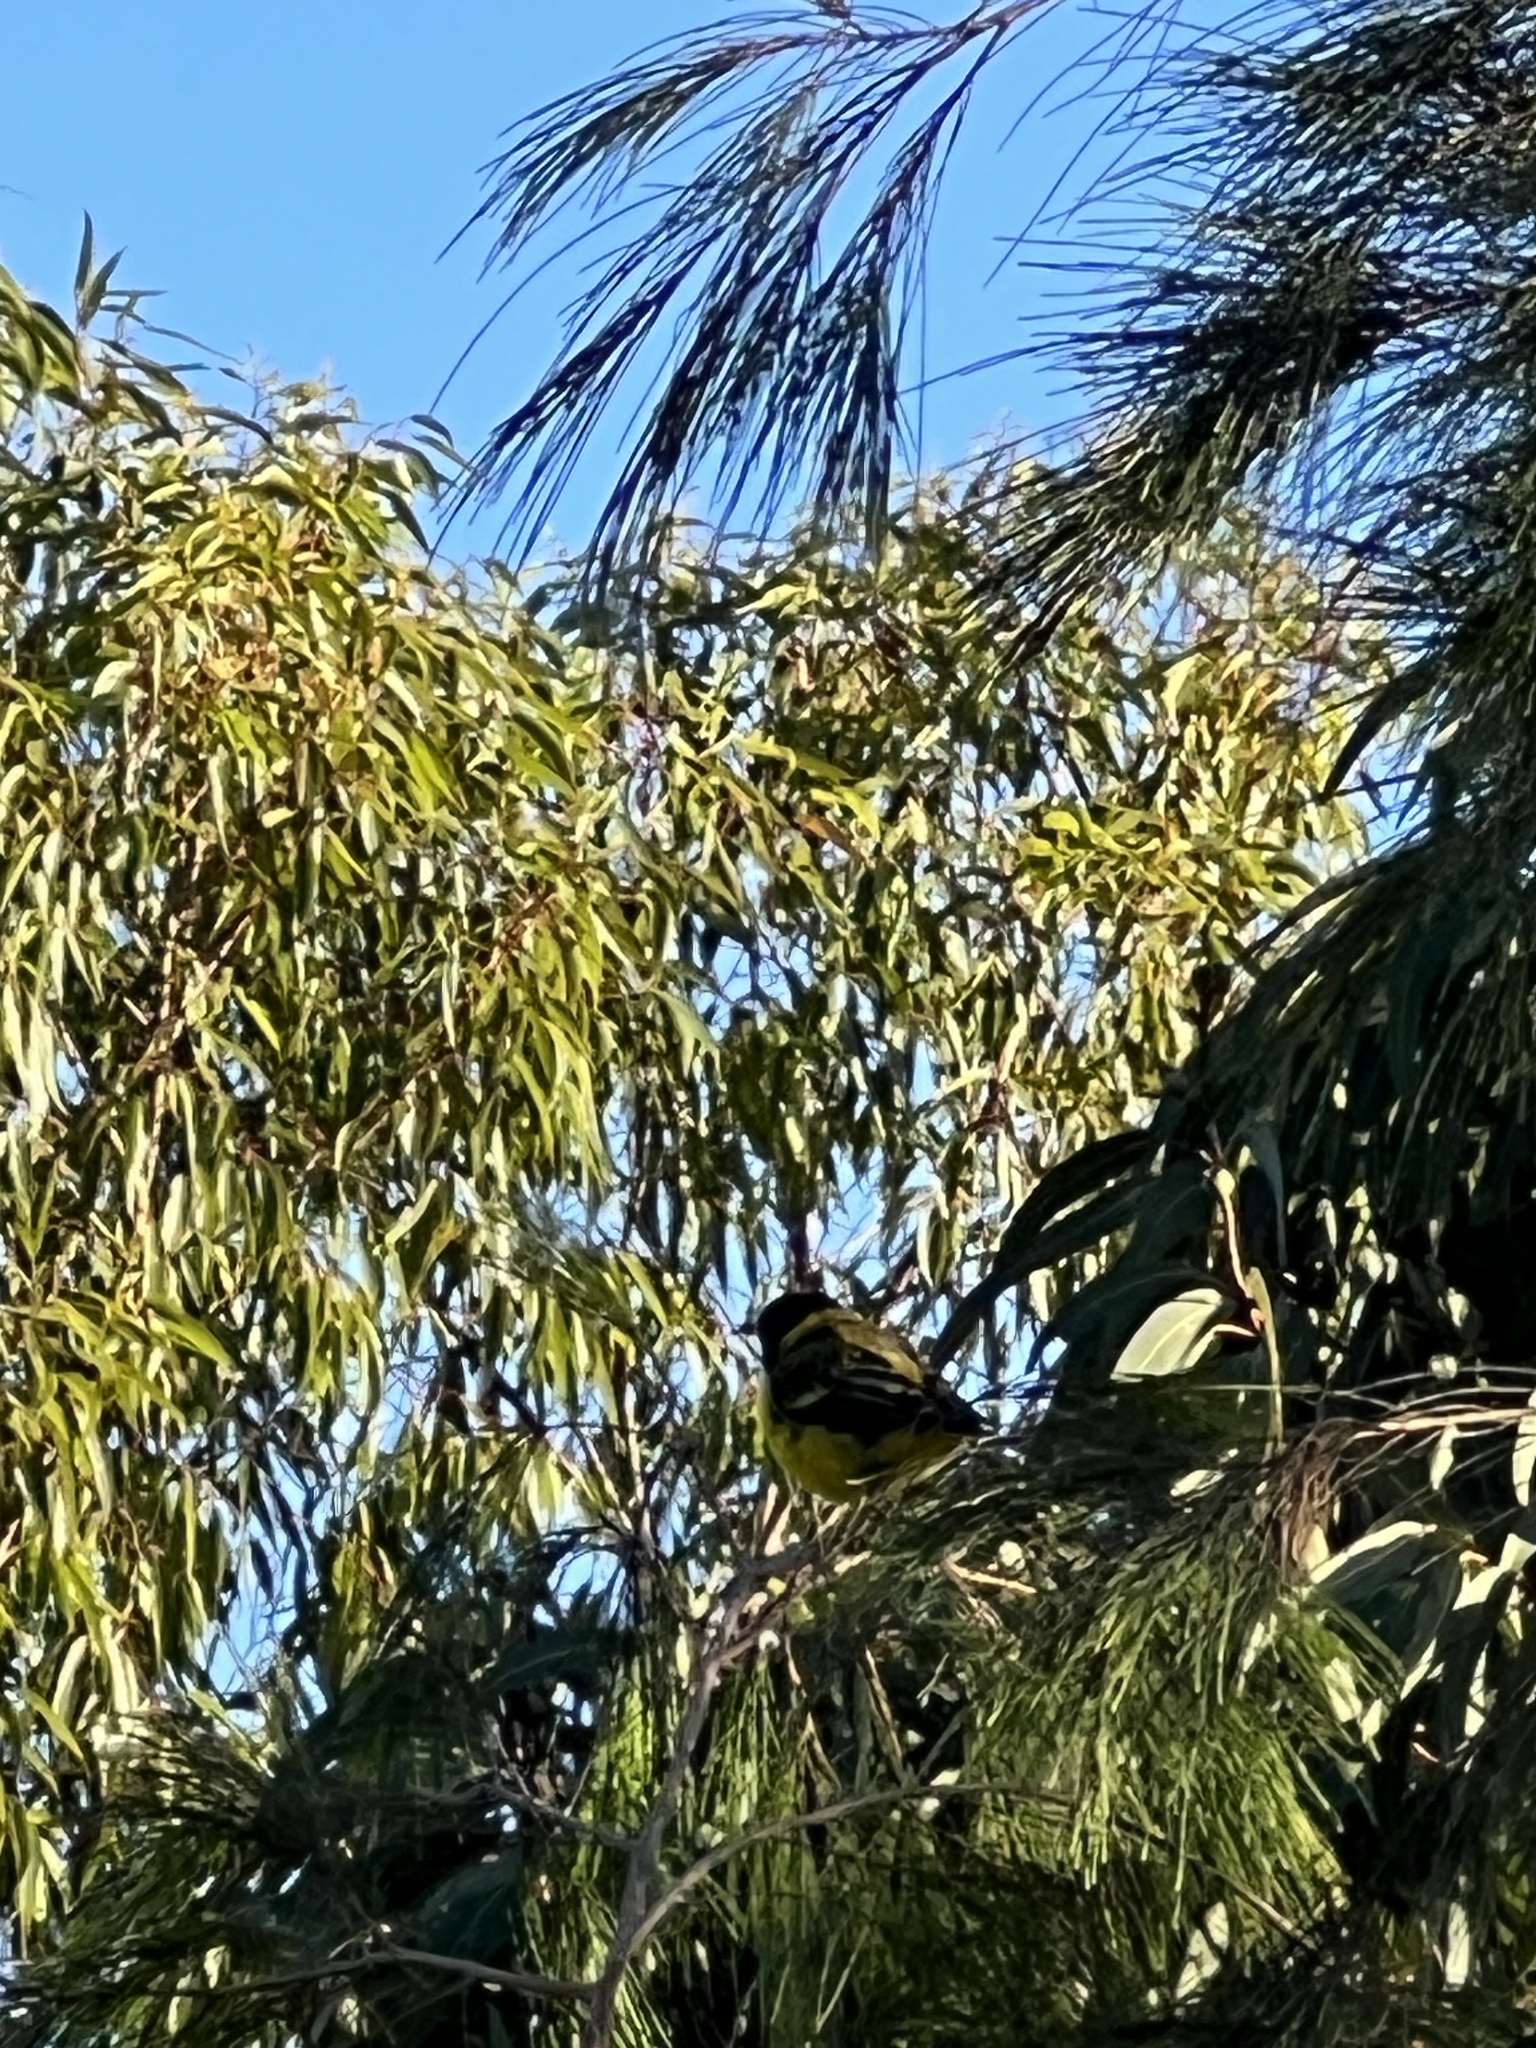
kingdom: Animalia
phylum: Chordata
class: Aves
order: Passeriformes
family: Pachycephalidae
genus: Pachycephala
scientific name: Pachycephala pectoralis
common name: Australian golden whistler
